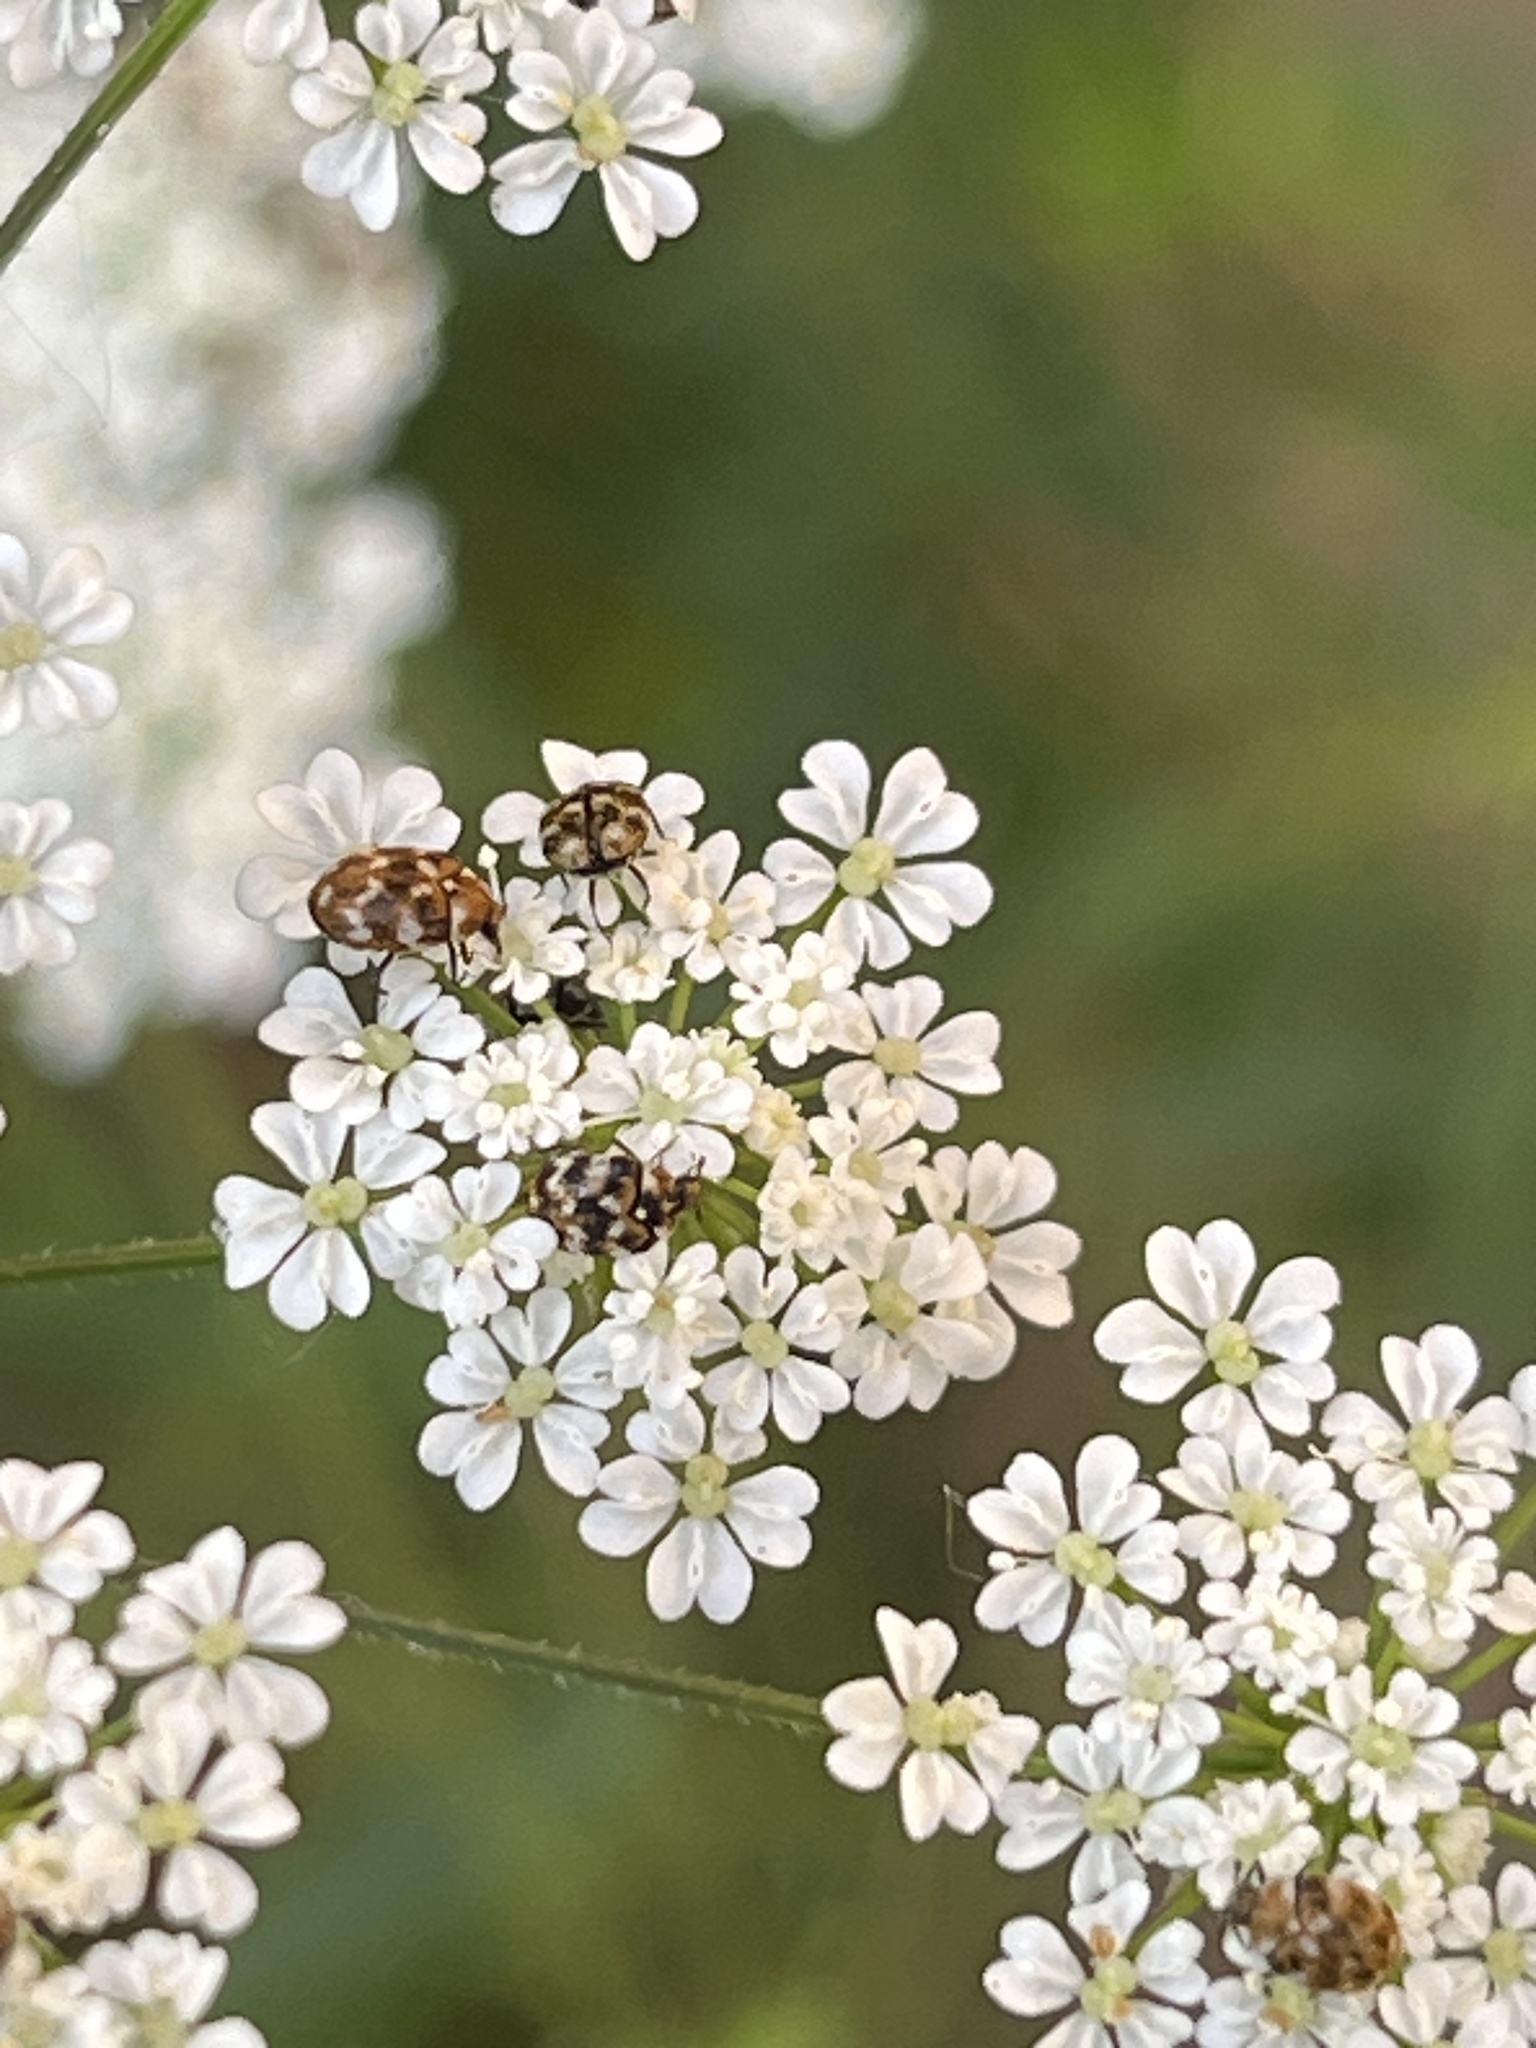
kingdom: Animalia
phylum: Arthropoda
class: Insecta
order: Coleoptera
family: Dermestidae
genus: Anthrenus
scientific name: Anthrenus verbasci
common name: Varied carpet beetle
